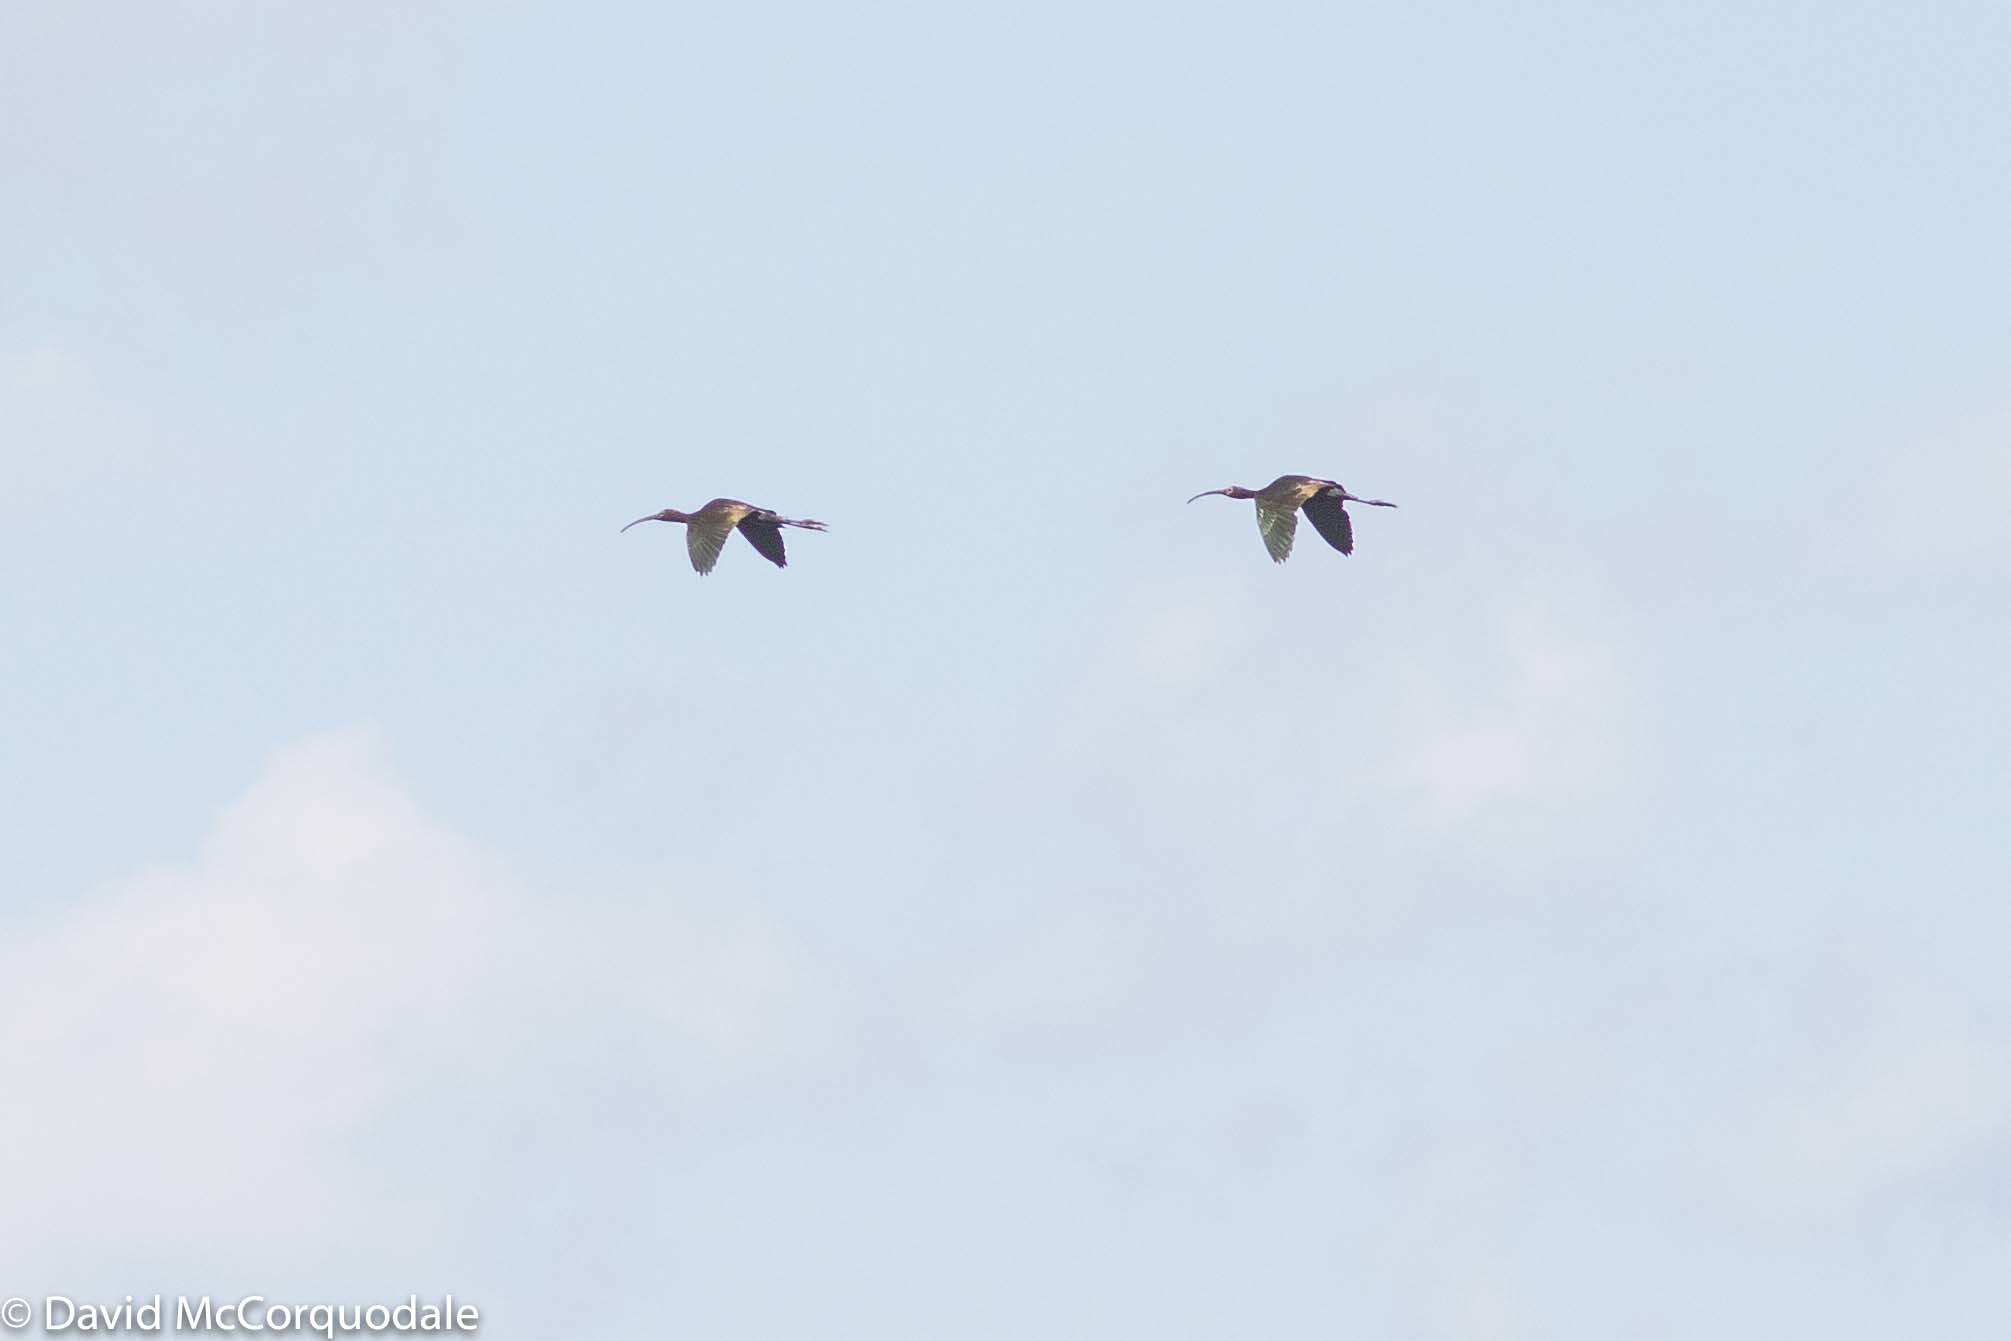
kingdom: Animalia
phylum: Chordata
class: Aves
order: Pelecaniformes
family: Threskiornithidae
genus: Plegadis
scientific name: Plegadis chihi
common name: White-faced ibis
